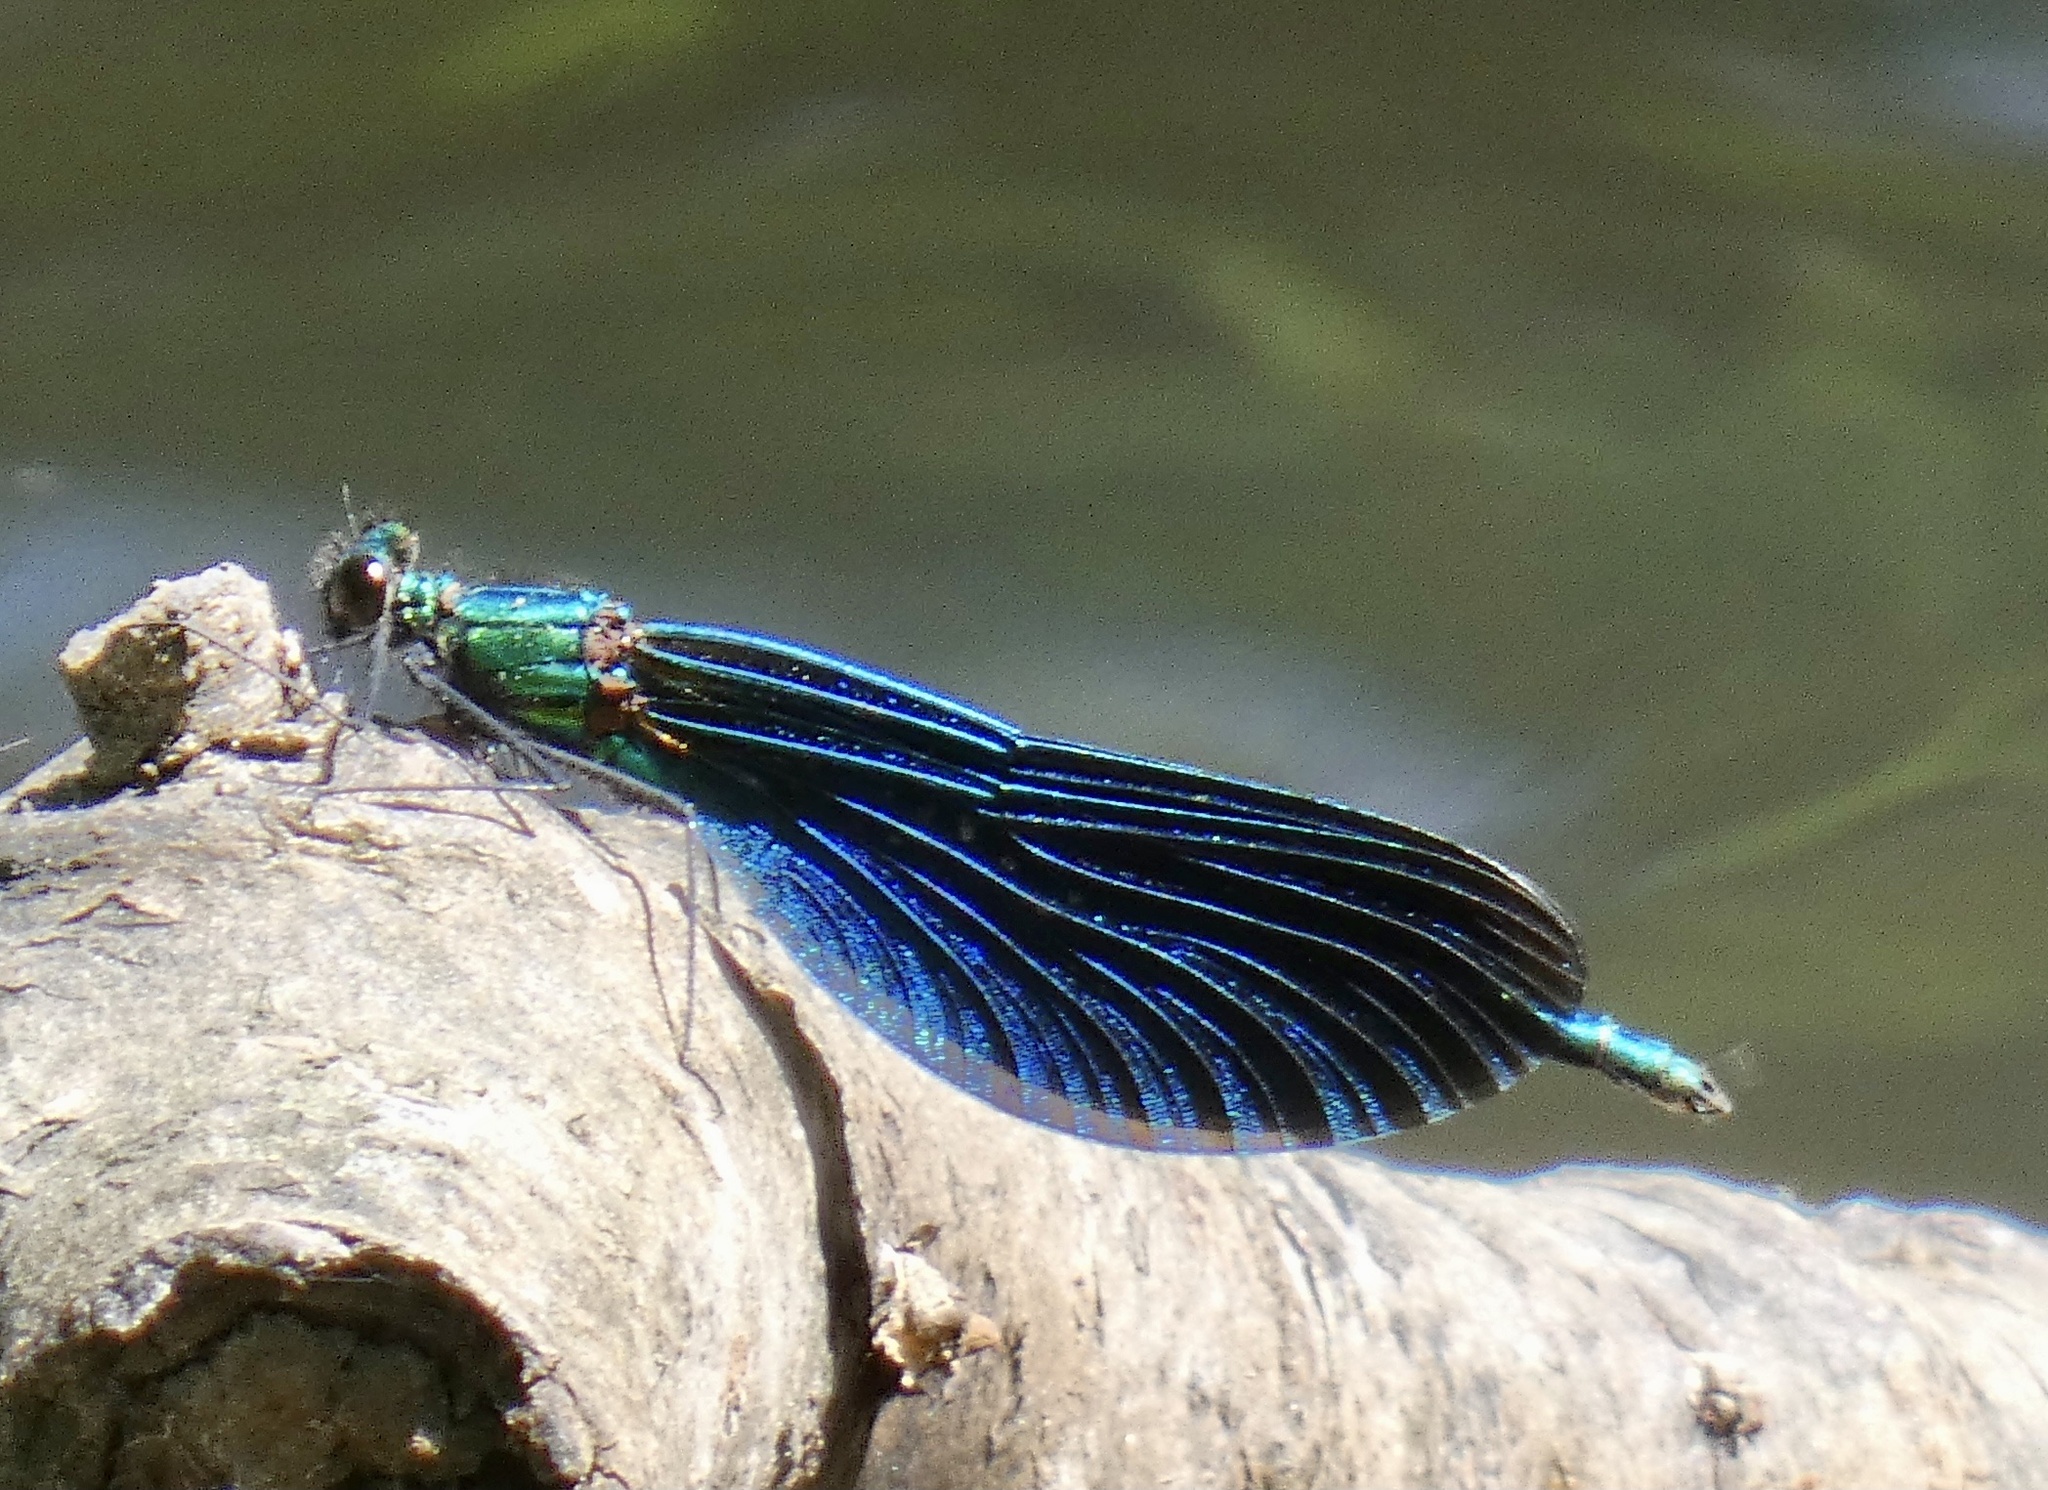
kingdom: Animalia
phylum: Arthropoda
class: Insecta
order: Odonata
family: Calopterygidae
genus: Calopteryx
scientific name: Calopteryx virgo
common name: Beautiful demoiselle
